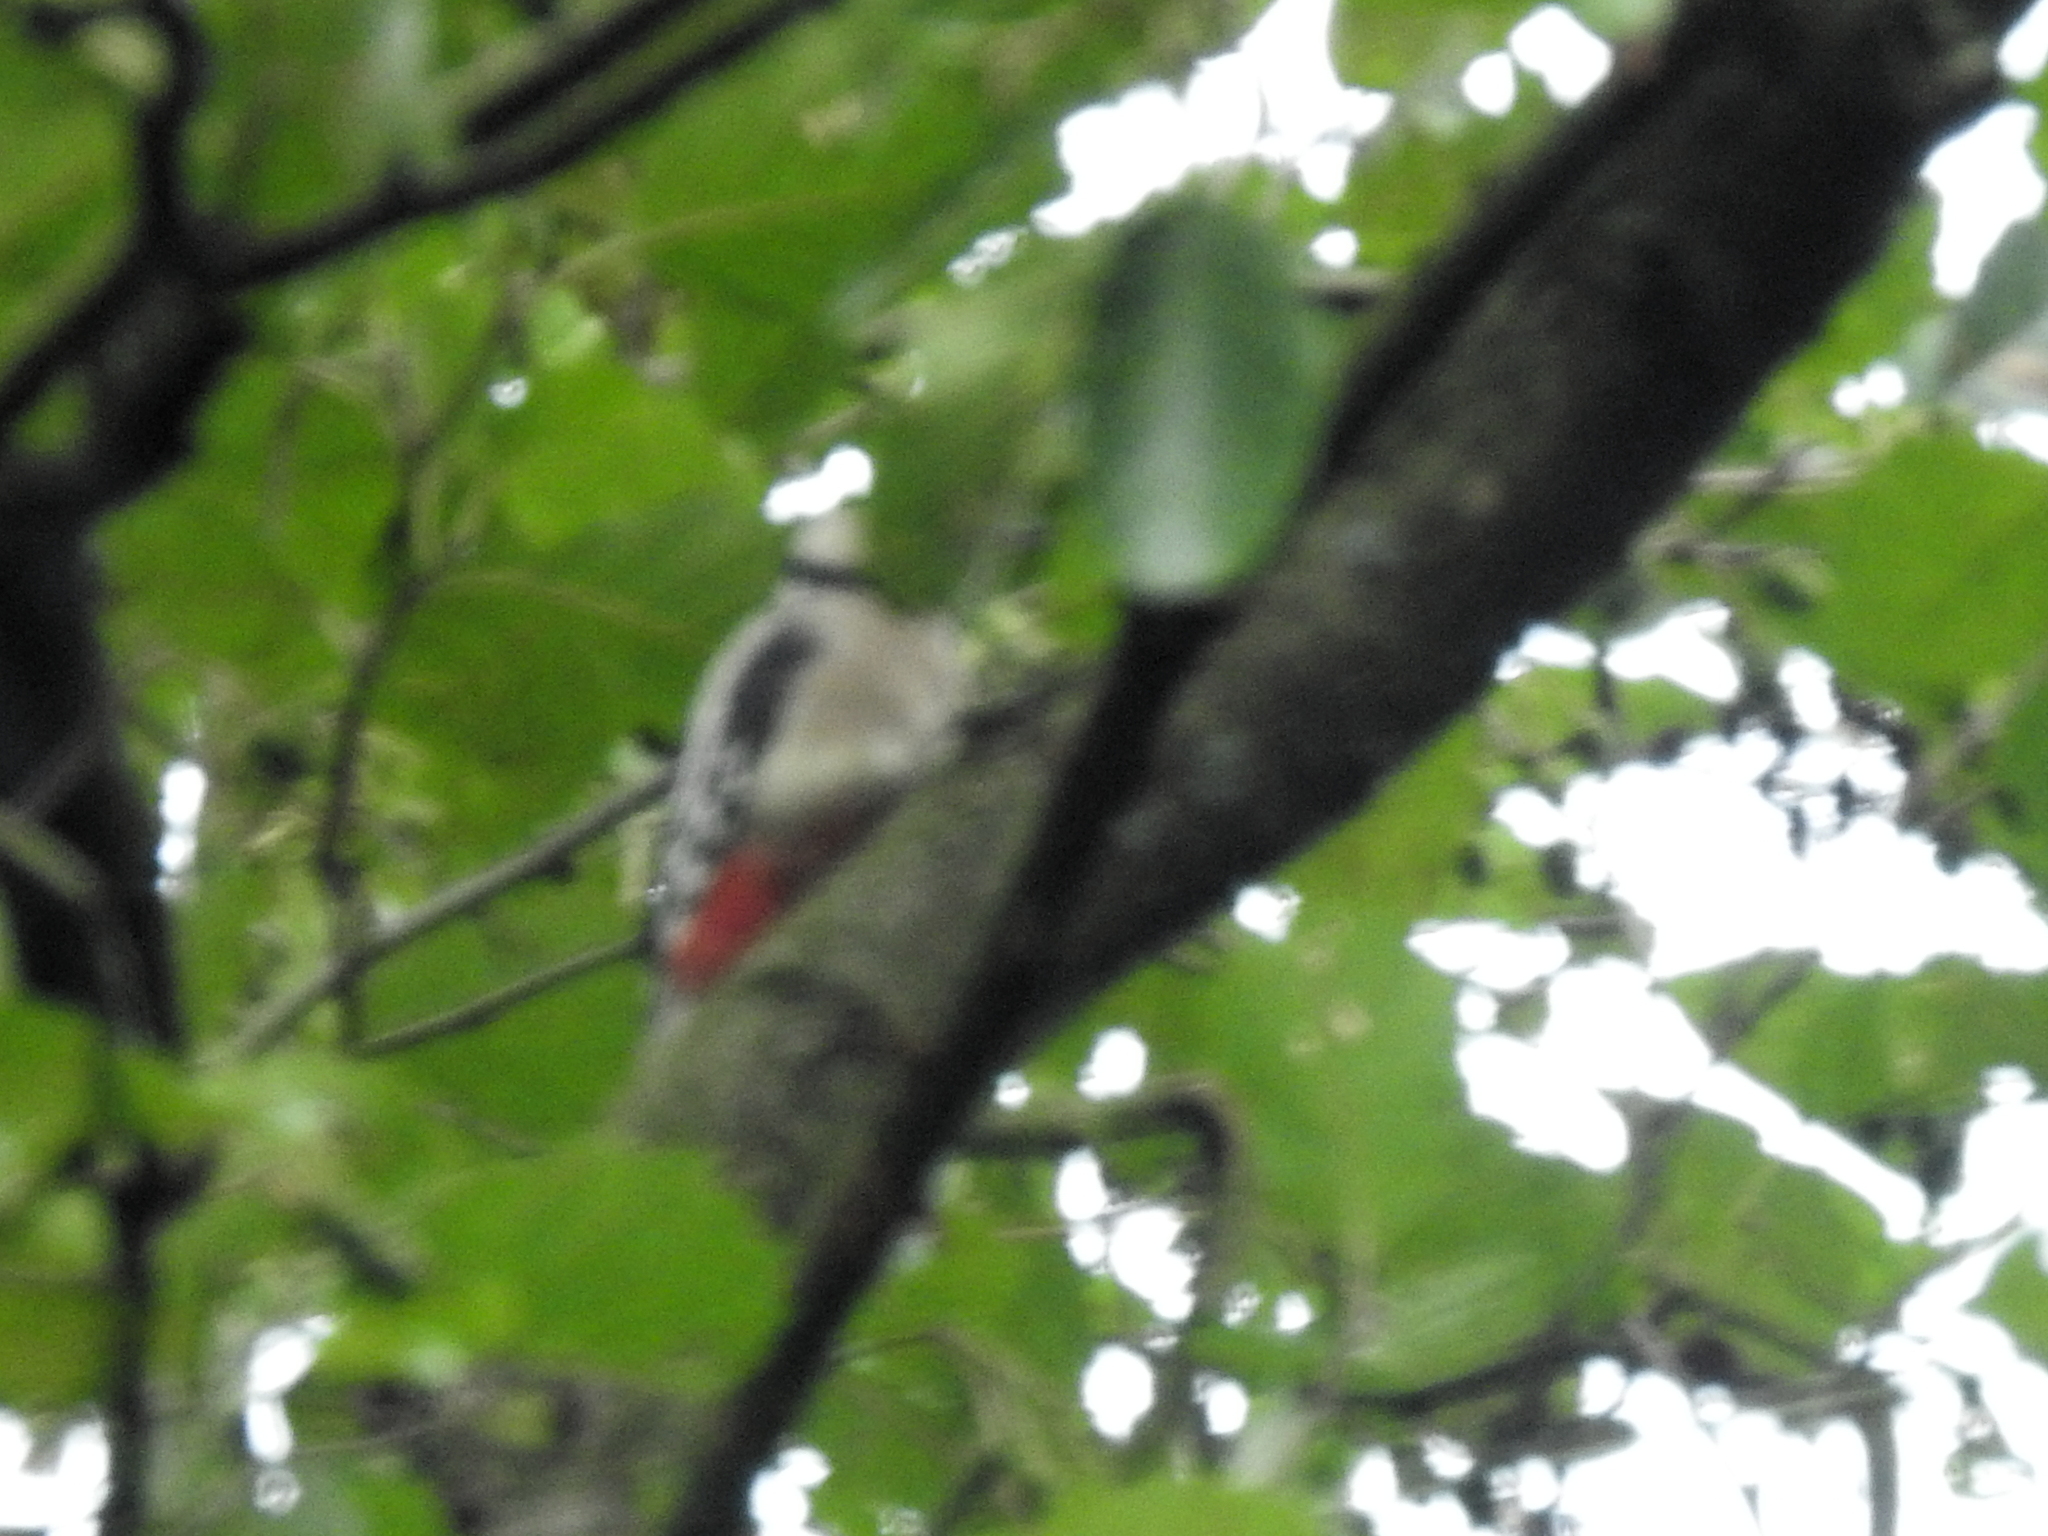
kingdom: Animalia
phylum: Chordata
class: Aves
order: Piciformes
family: Picidae
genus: Dendrocopos
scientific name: Dendrocopos major
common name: Great spotted woodpecker
